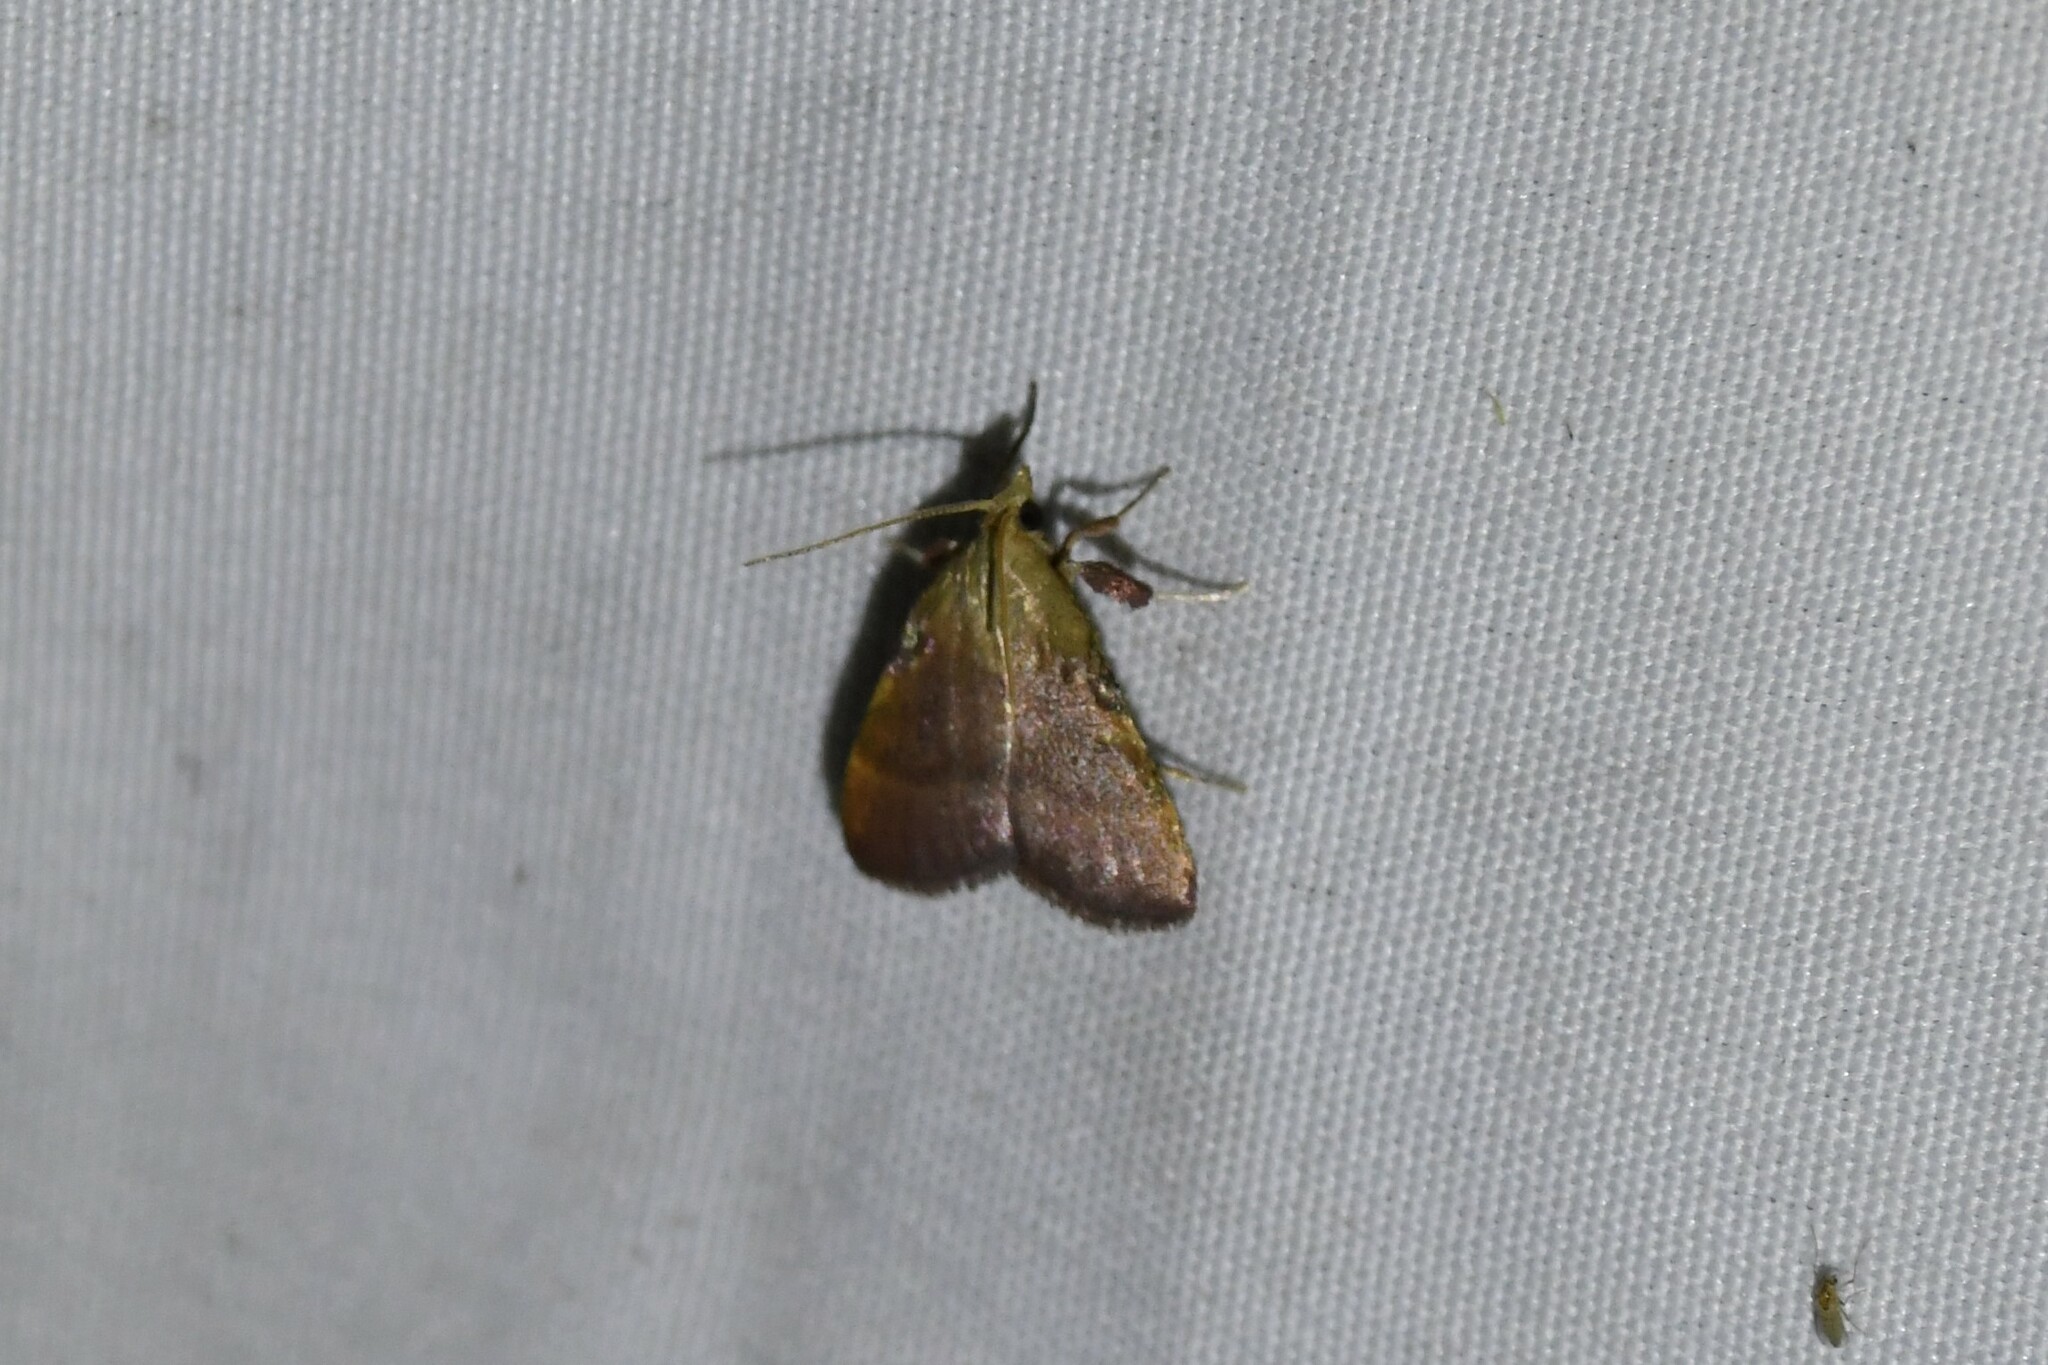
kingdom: Animalia
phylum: Arthropoda
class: Insecta
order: Lepidoptera
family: Pyralidae
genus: Condylolomia
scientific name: Condylolomia participialis
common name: Drab condylolomia moth
